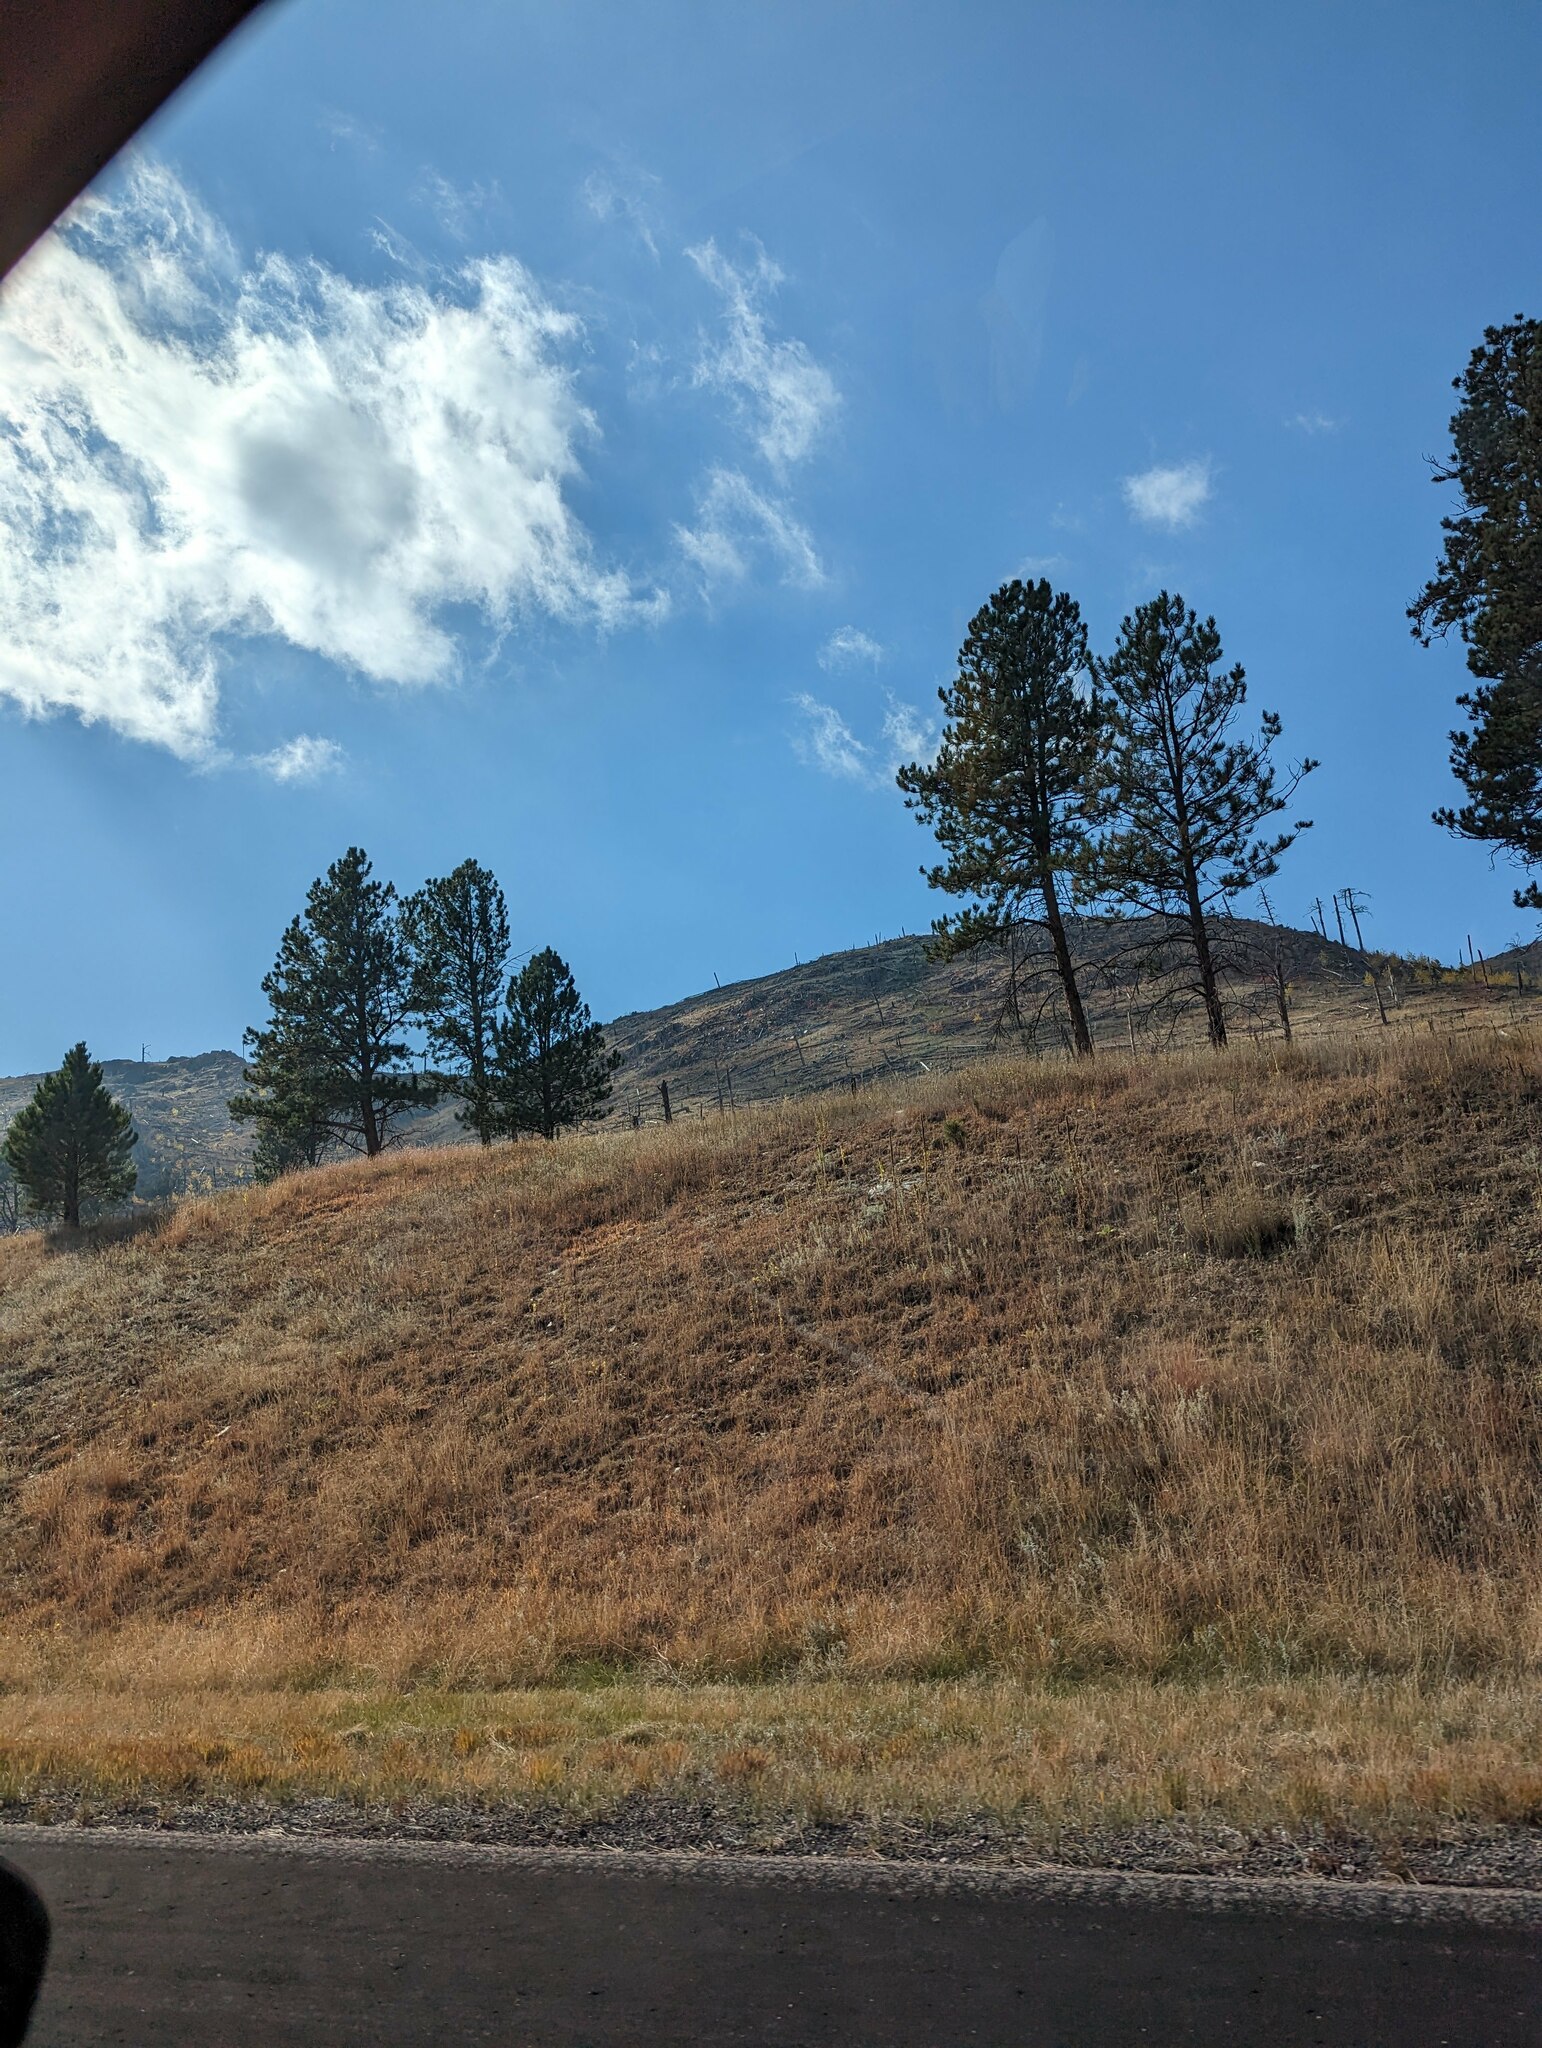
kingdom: Plantae
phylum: Tracheophyta
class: Pinopsida
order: Pinales
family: Pinaceae
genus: Pinus
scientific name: Pinus ponderosa
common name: Western yellow-pine
